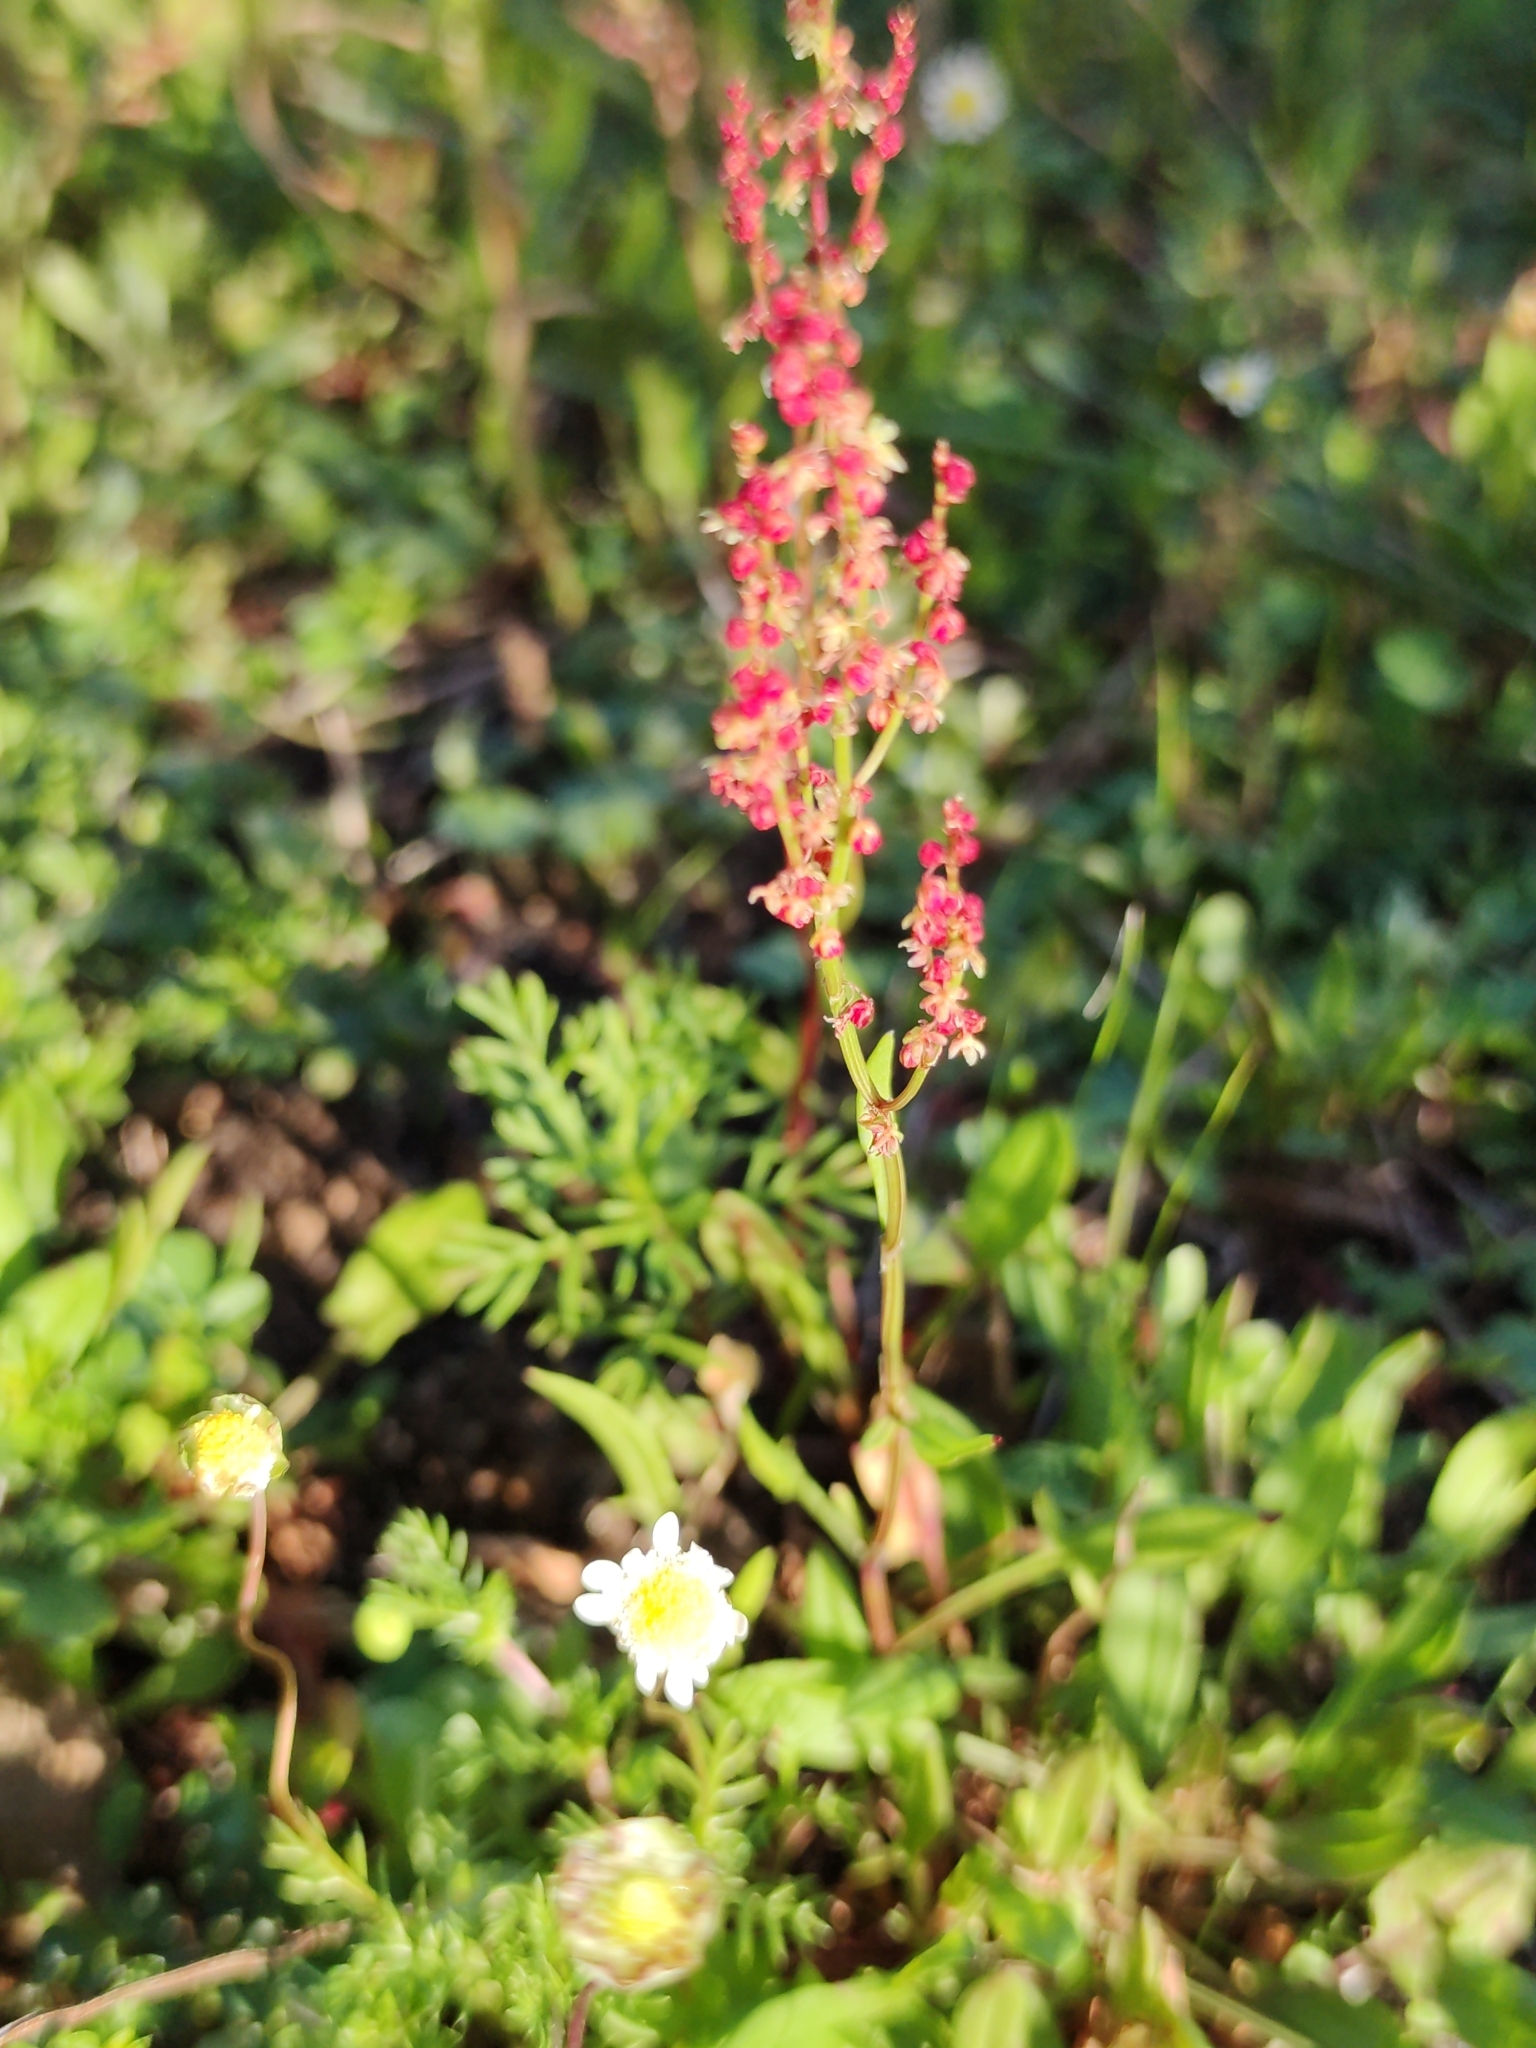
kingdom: Plantae
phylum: Tracheophyta
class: Magnoliopsida
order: Caryophyllales
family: Polygonaceae
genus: Rumex
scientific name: Rumex acetosella
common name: Common sheep sorrel
